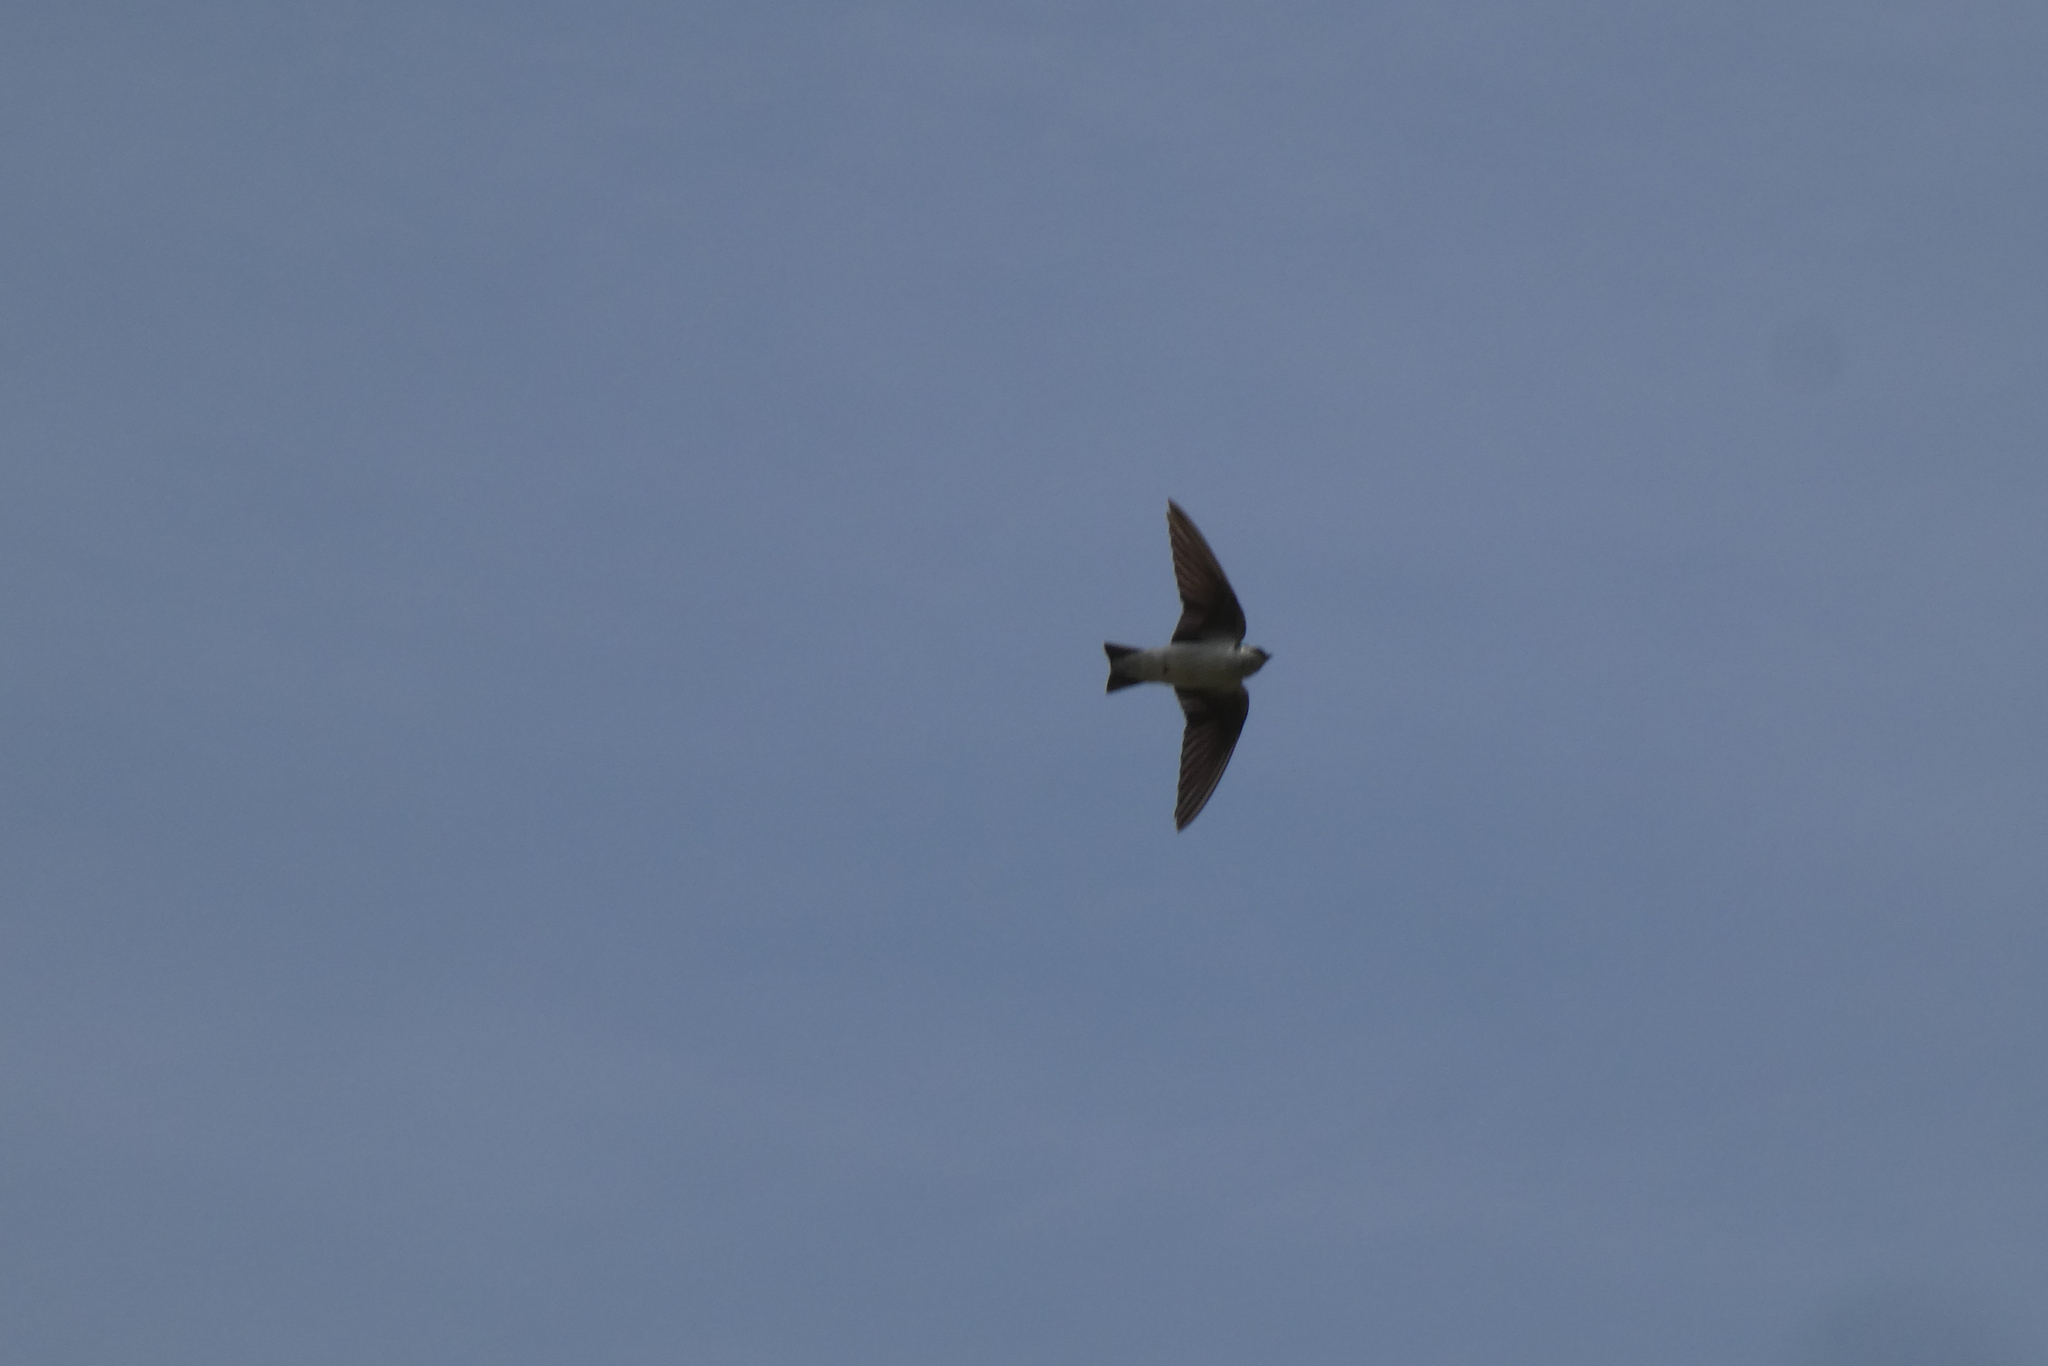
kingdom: Animalia
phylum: Chordata
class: Aves
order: Passeriformes
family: Hirundinidae
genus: Tachycineta
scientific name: Tachycineta thalassina
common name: Violet-green swallow
